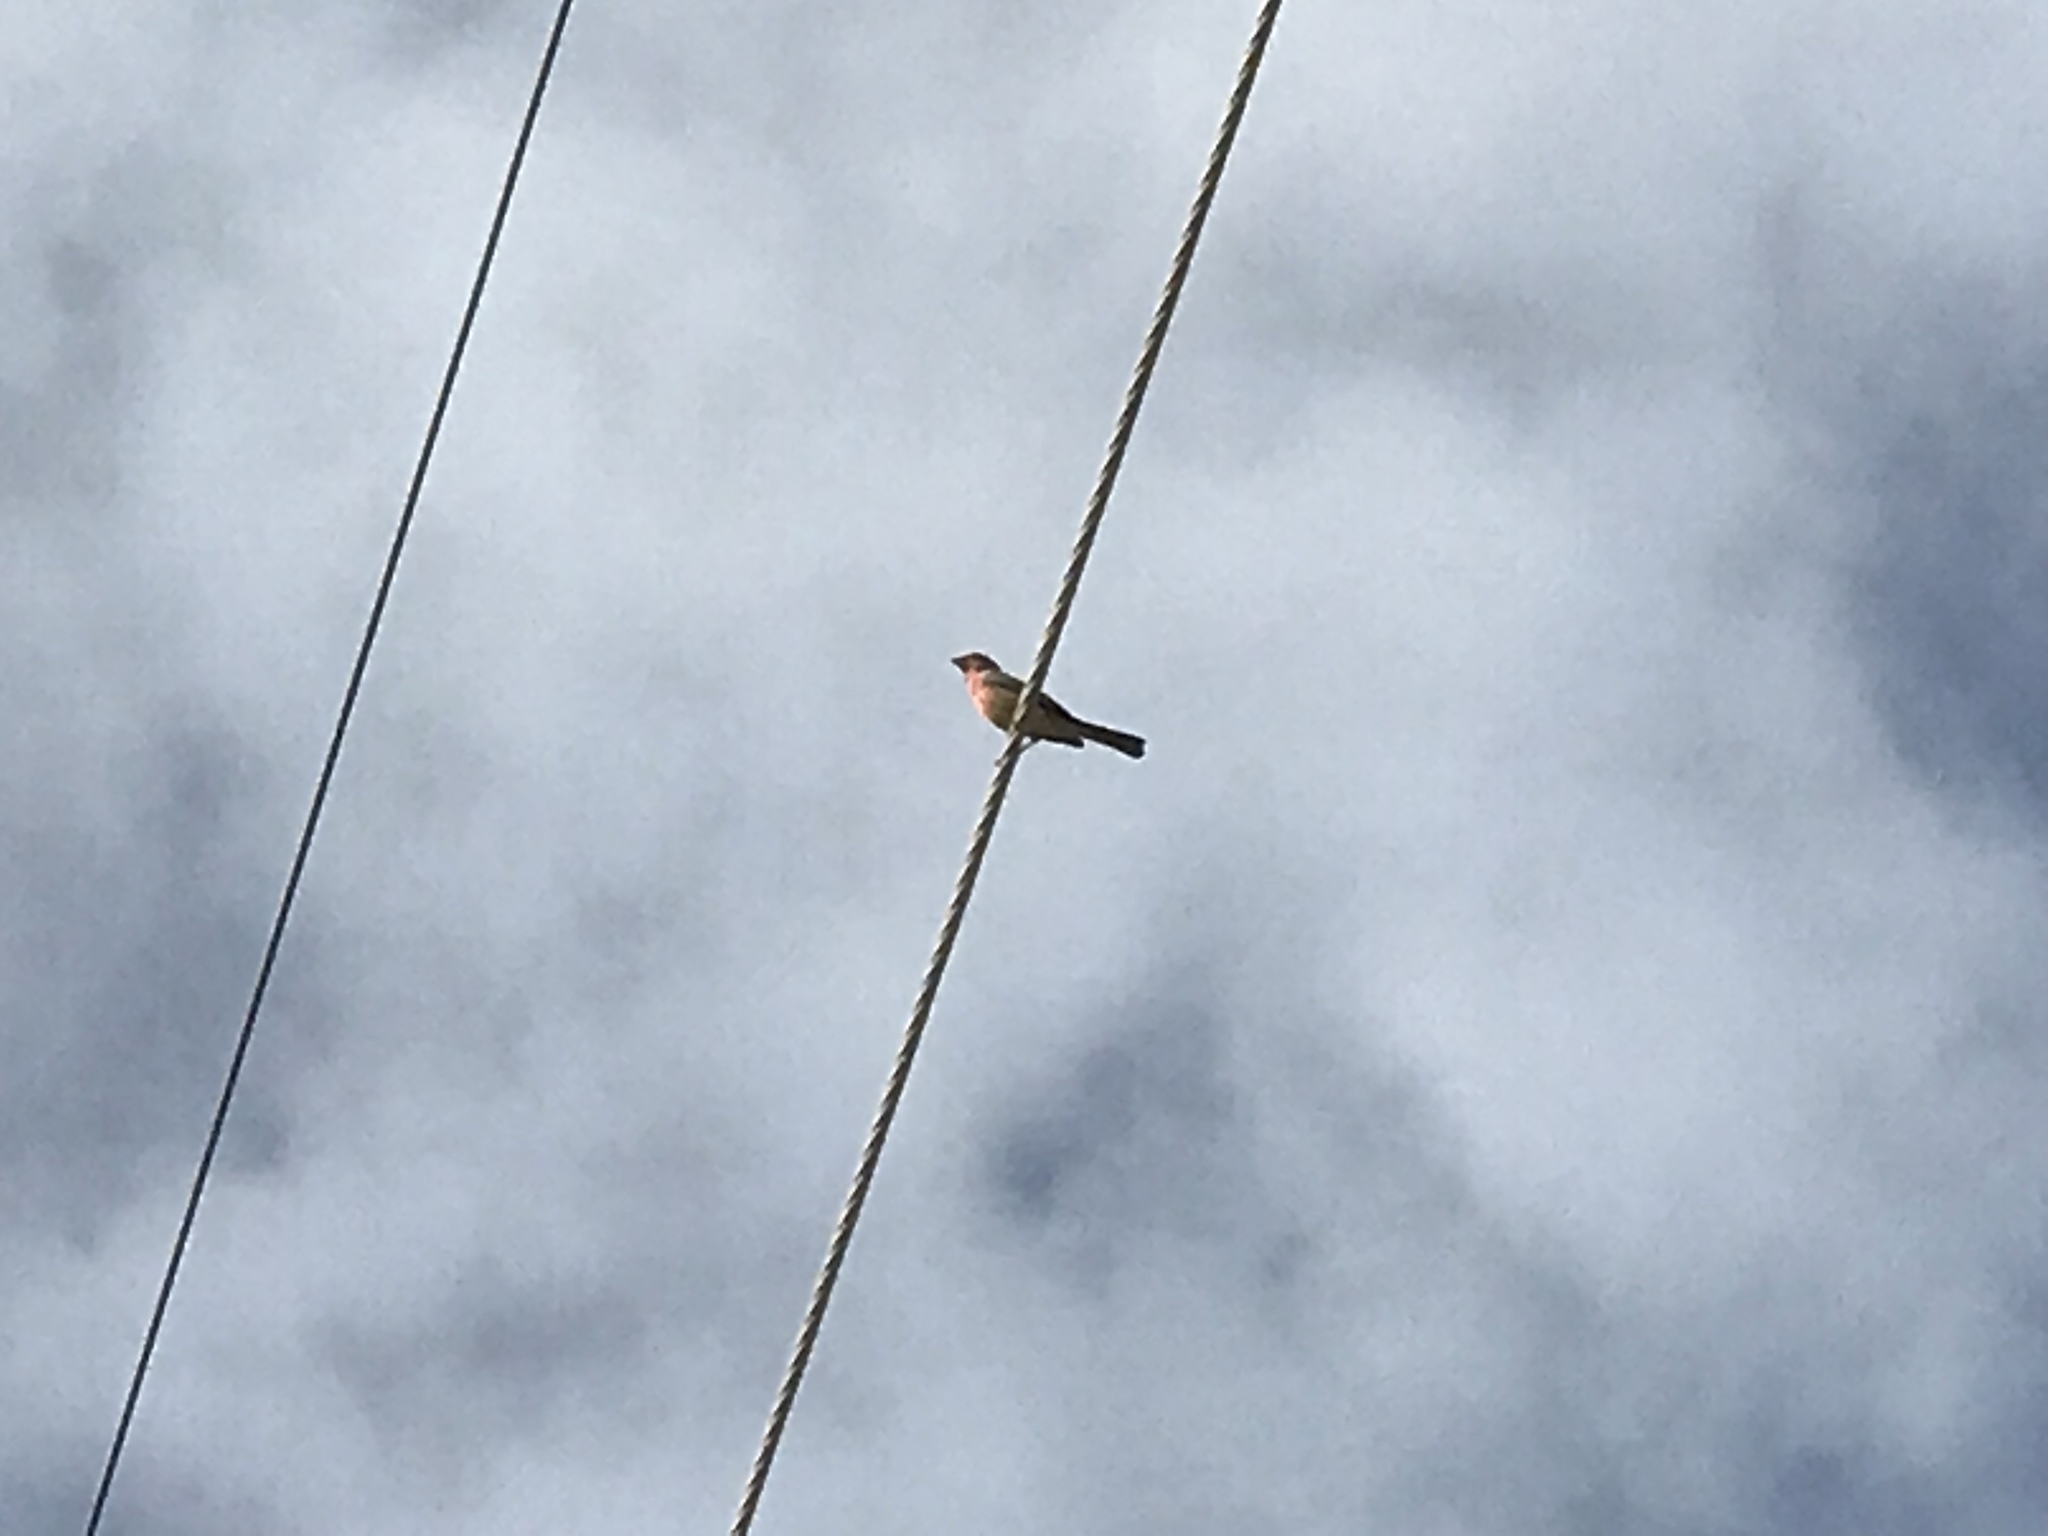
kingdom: Animalia
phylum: Chordata
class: Aves
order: Passeriformes
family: Fringillidae
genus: Haemorhous
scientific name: Haemorhous mexicanus
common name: House finch
